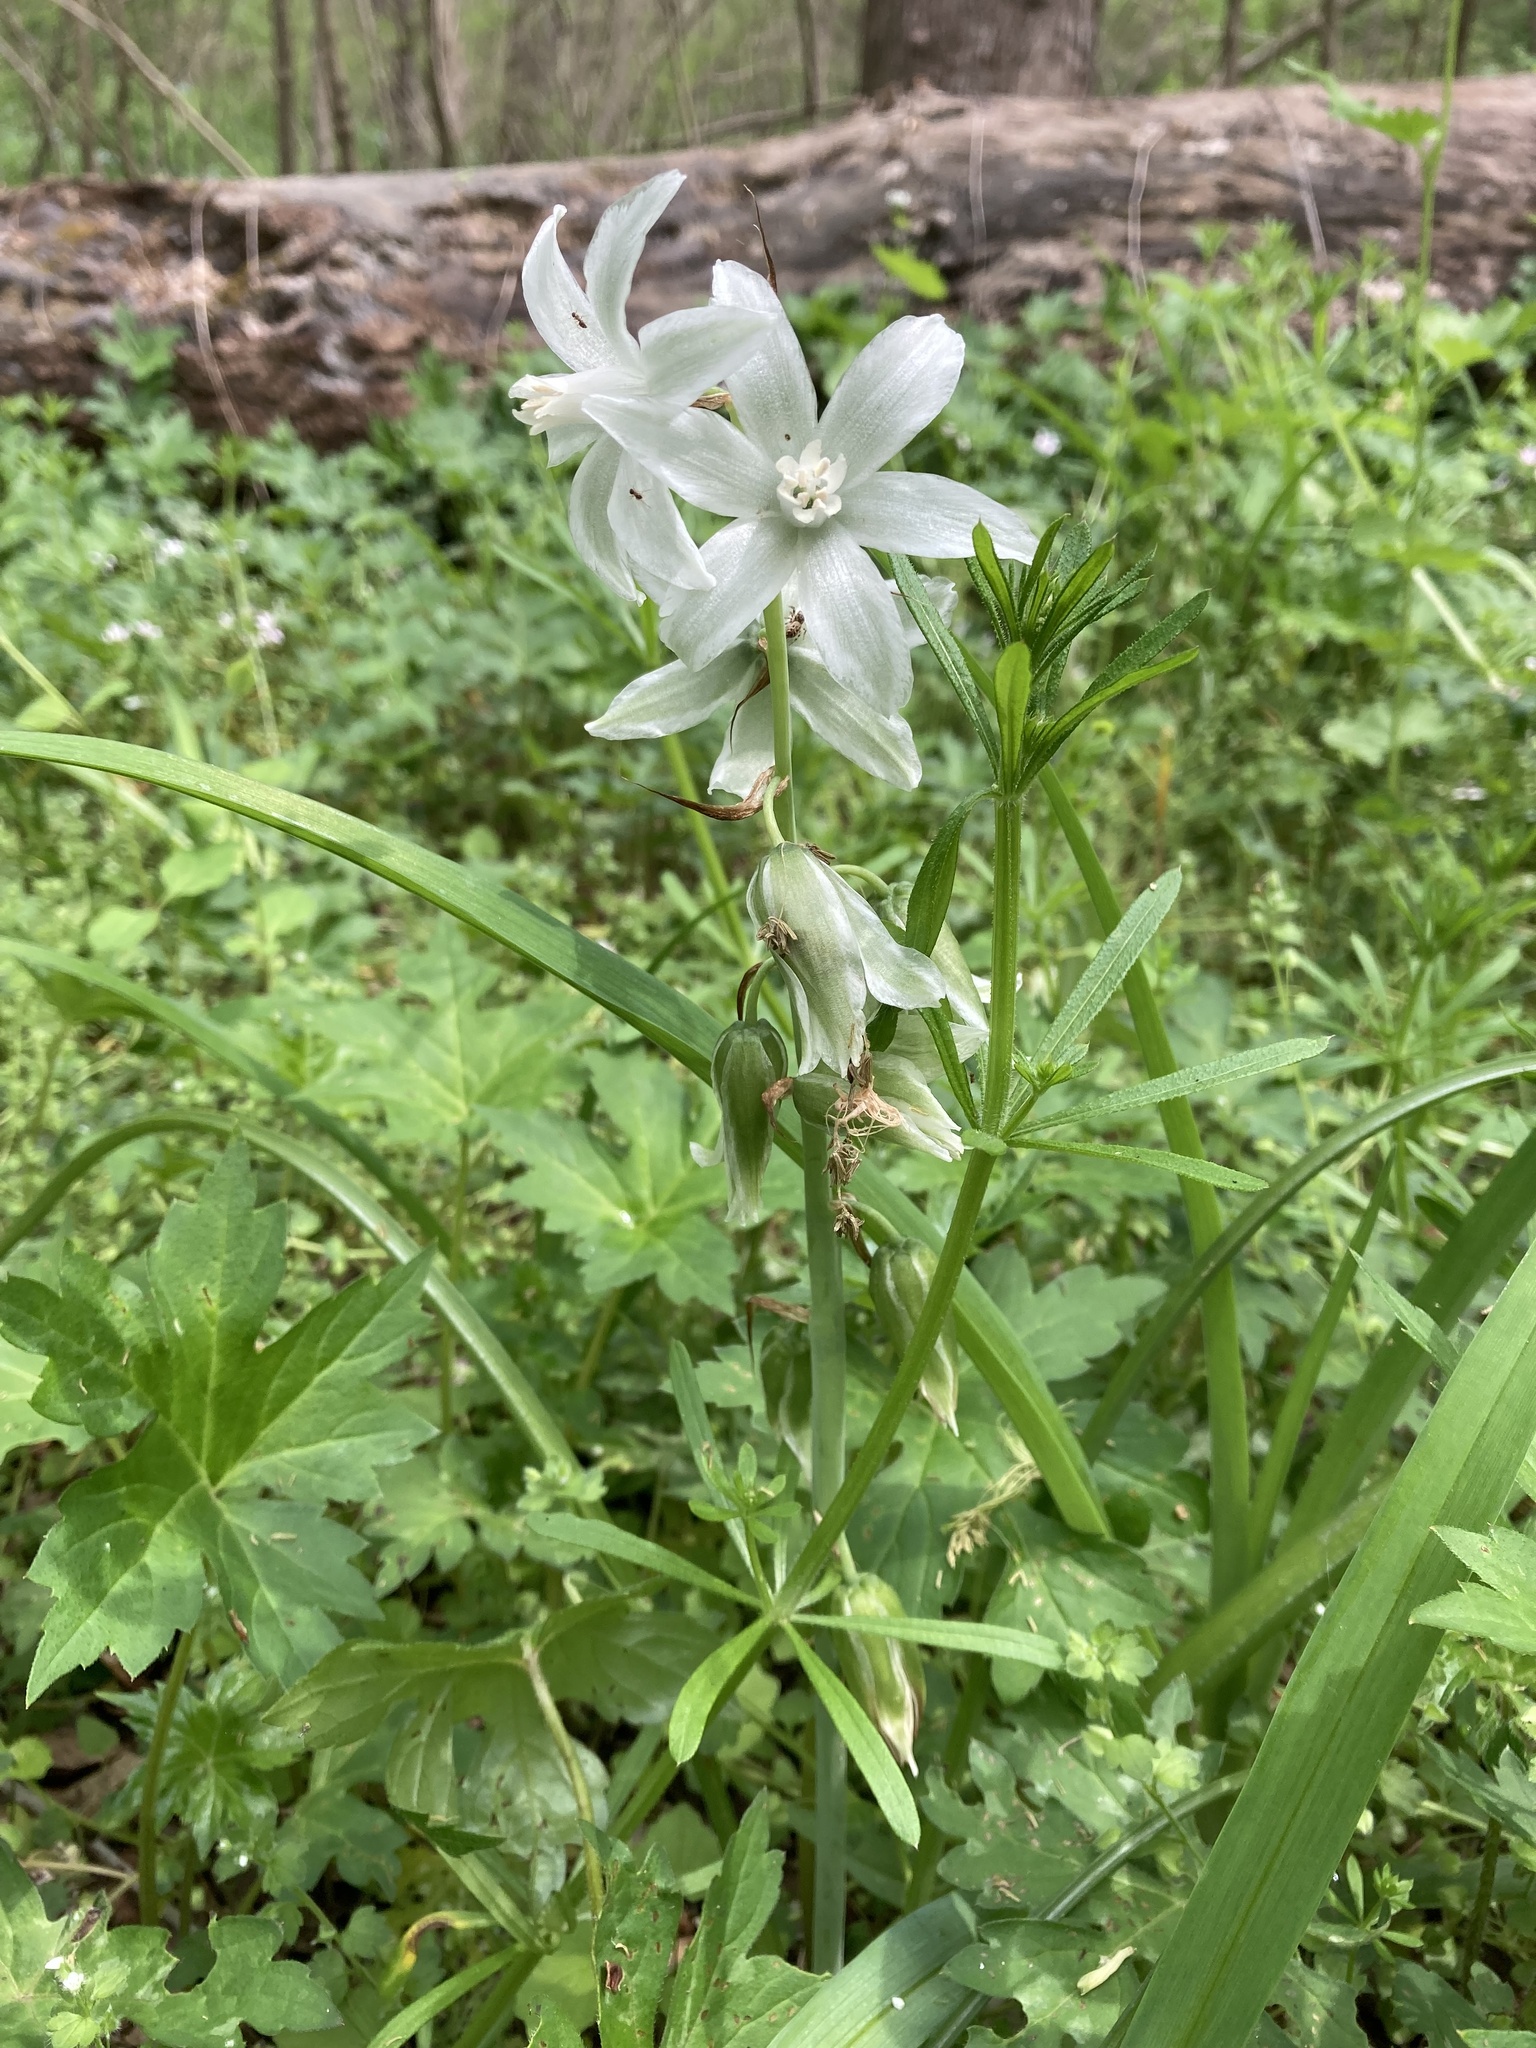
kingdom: Plantae
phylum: Tracheophyta
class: Liliopsida
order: Asparagales
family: Asparagaceae
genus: Ornithogalum
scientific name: Ornithogalum nutans
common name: Drooping star-of-bethlehem
